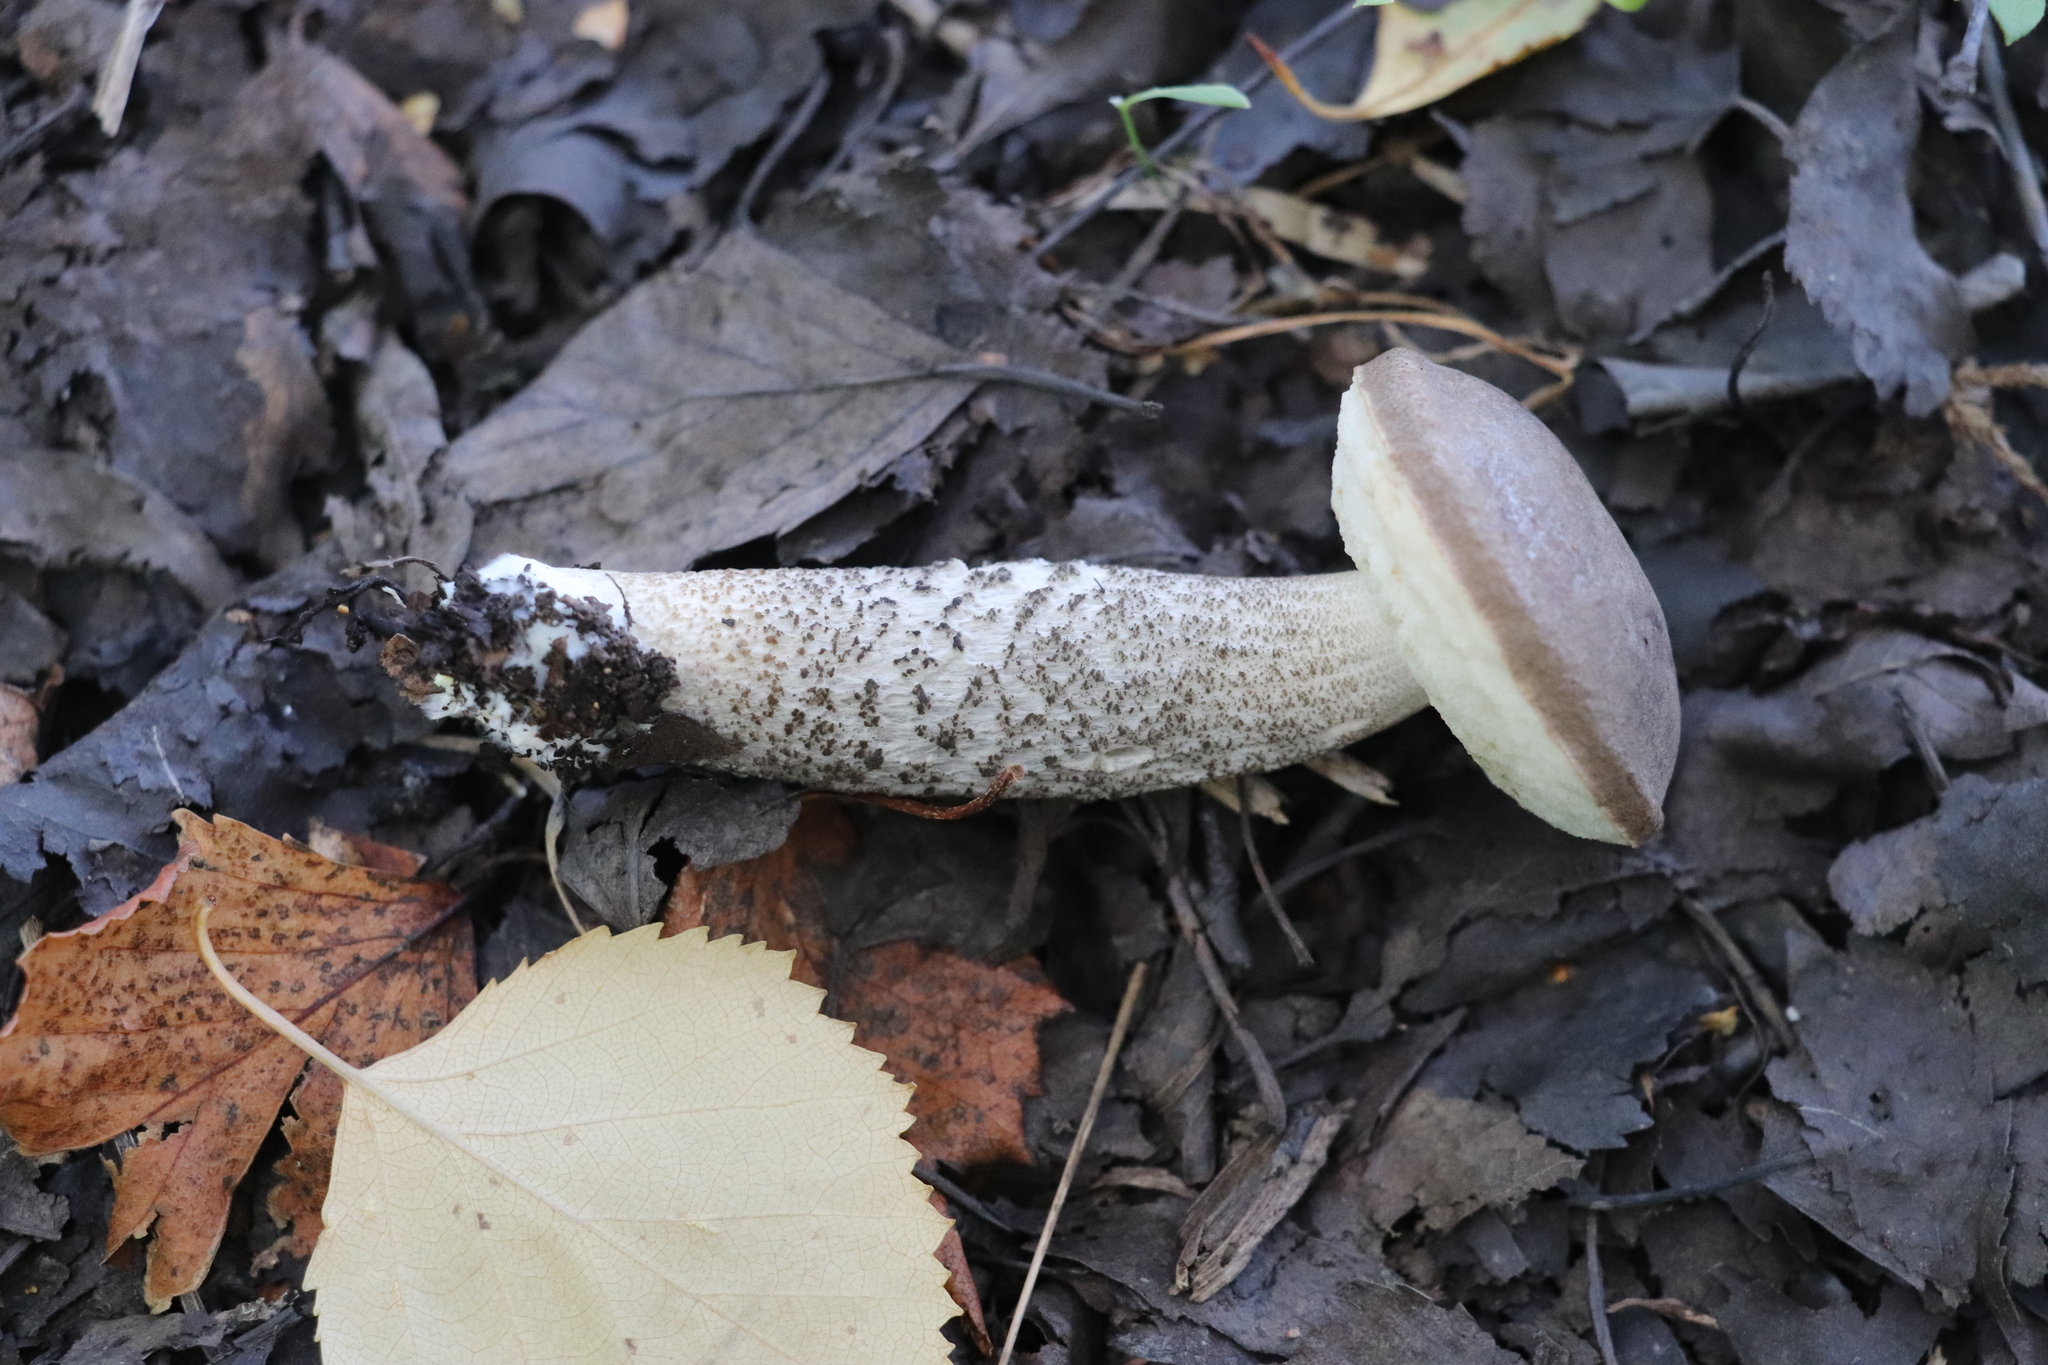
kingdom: Fungi
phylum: Basidiomycota
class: Agaricomycetes
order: Boletales
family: Boletaceae
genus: Leccinum
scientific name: Leccinum scabrum
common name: Blushing bolete
